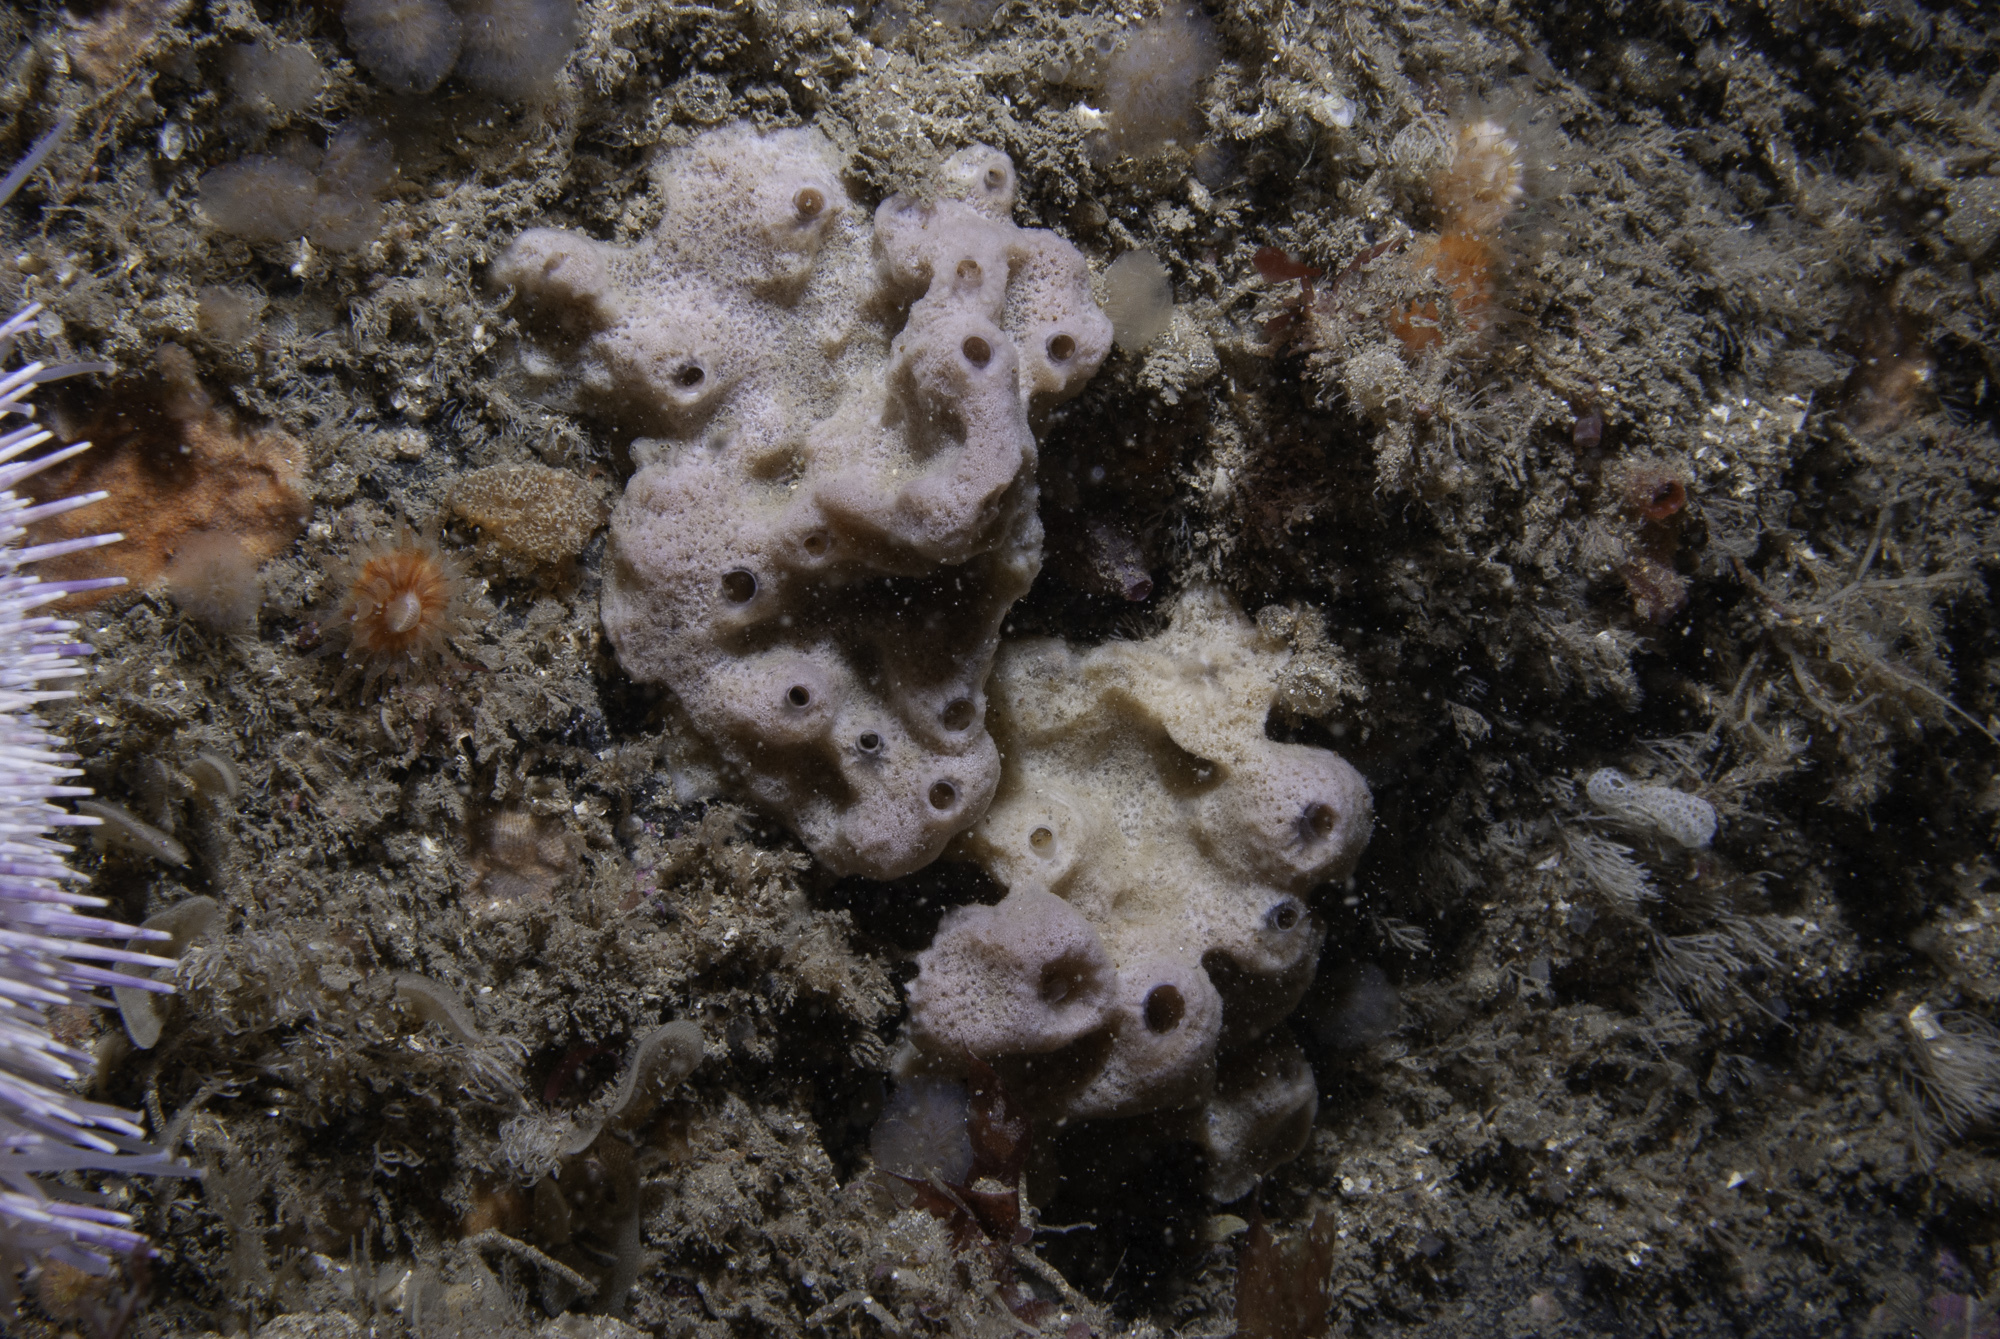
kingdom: Animalia
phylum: Porifera
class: Demospongiae
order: Haplosclerida
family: Chalinidae
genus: Haliclona
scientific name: Haliclona viscosa
